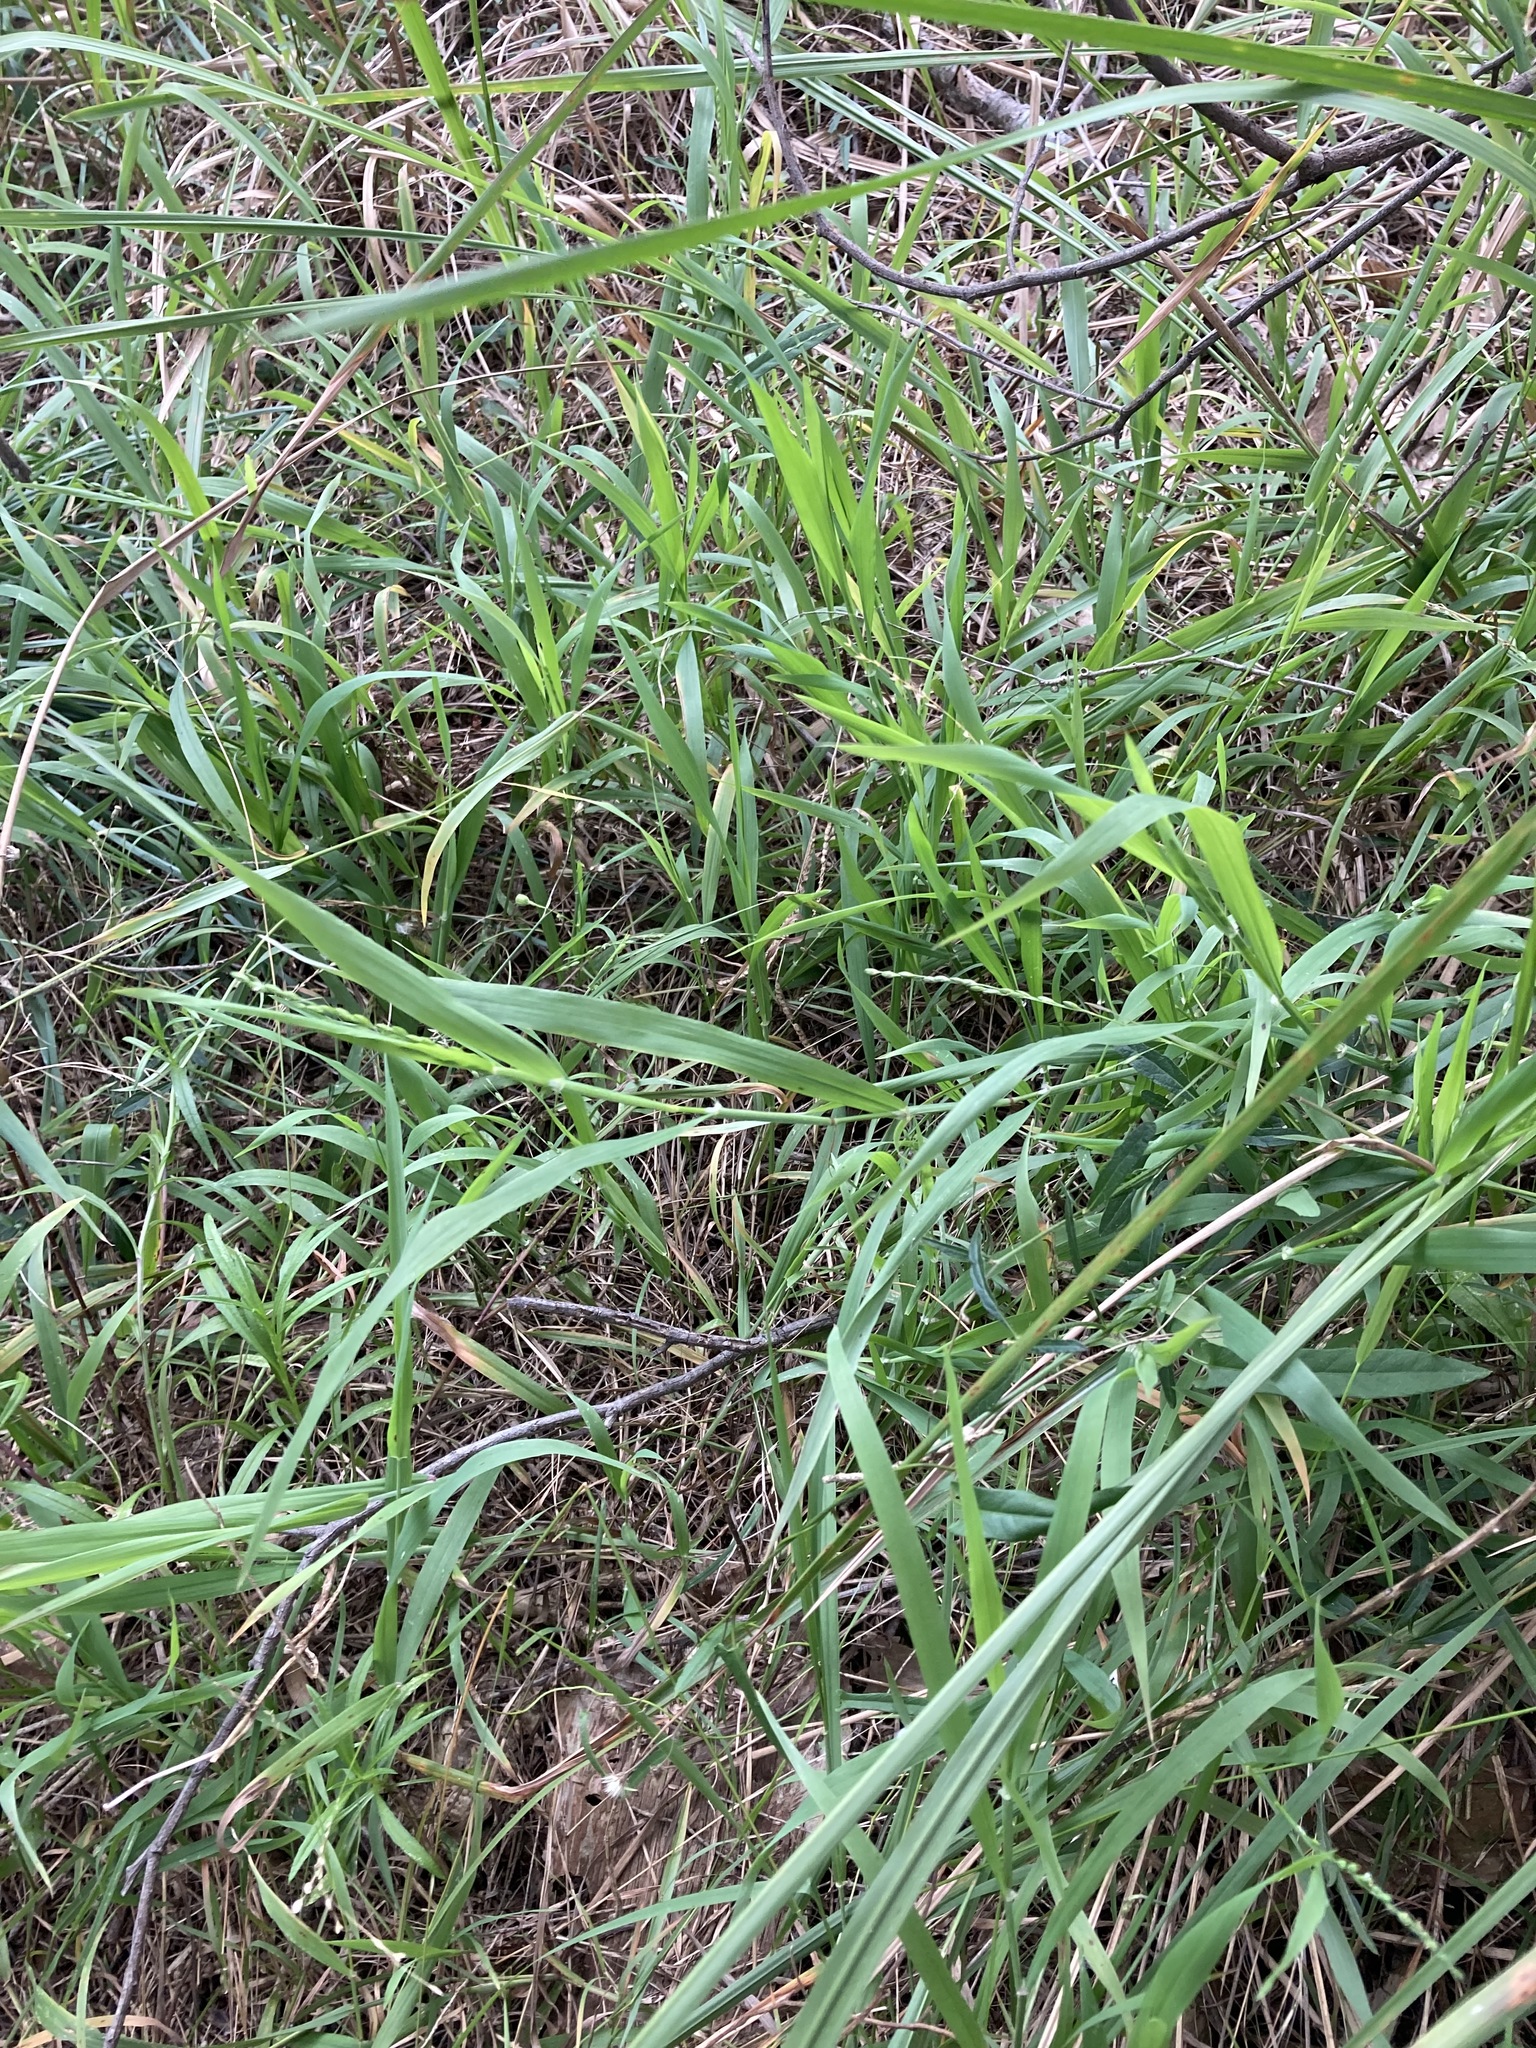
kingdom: Plantae
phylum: Tracheophyta
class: Liliopsida
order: Poales
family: Poaceae
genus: Ehrharta
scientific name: Ehrharta erecta
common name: Panic veldtgrass
